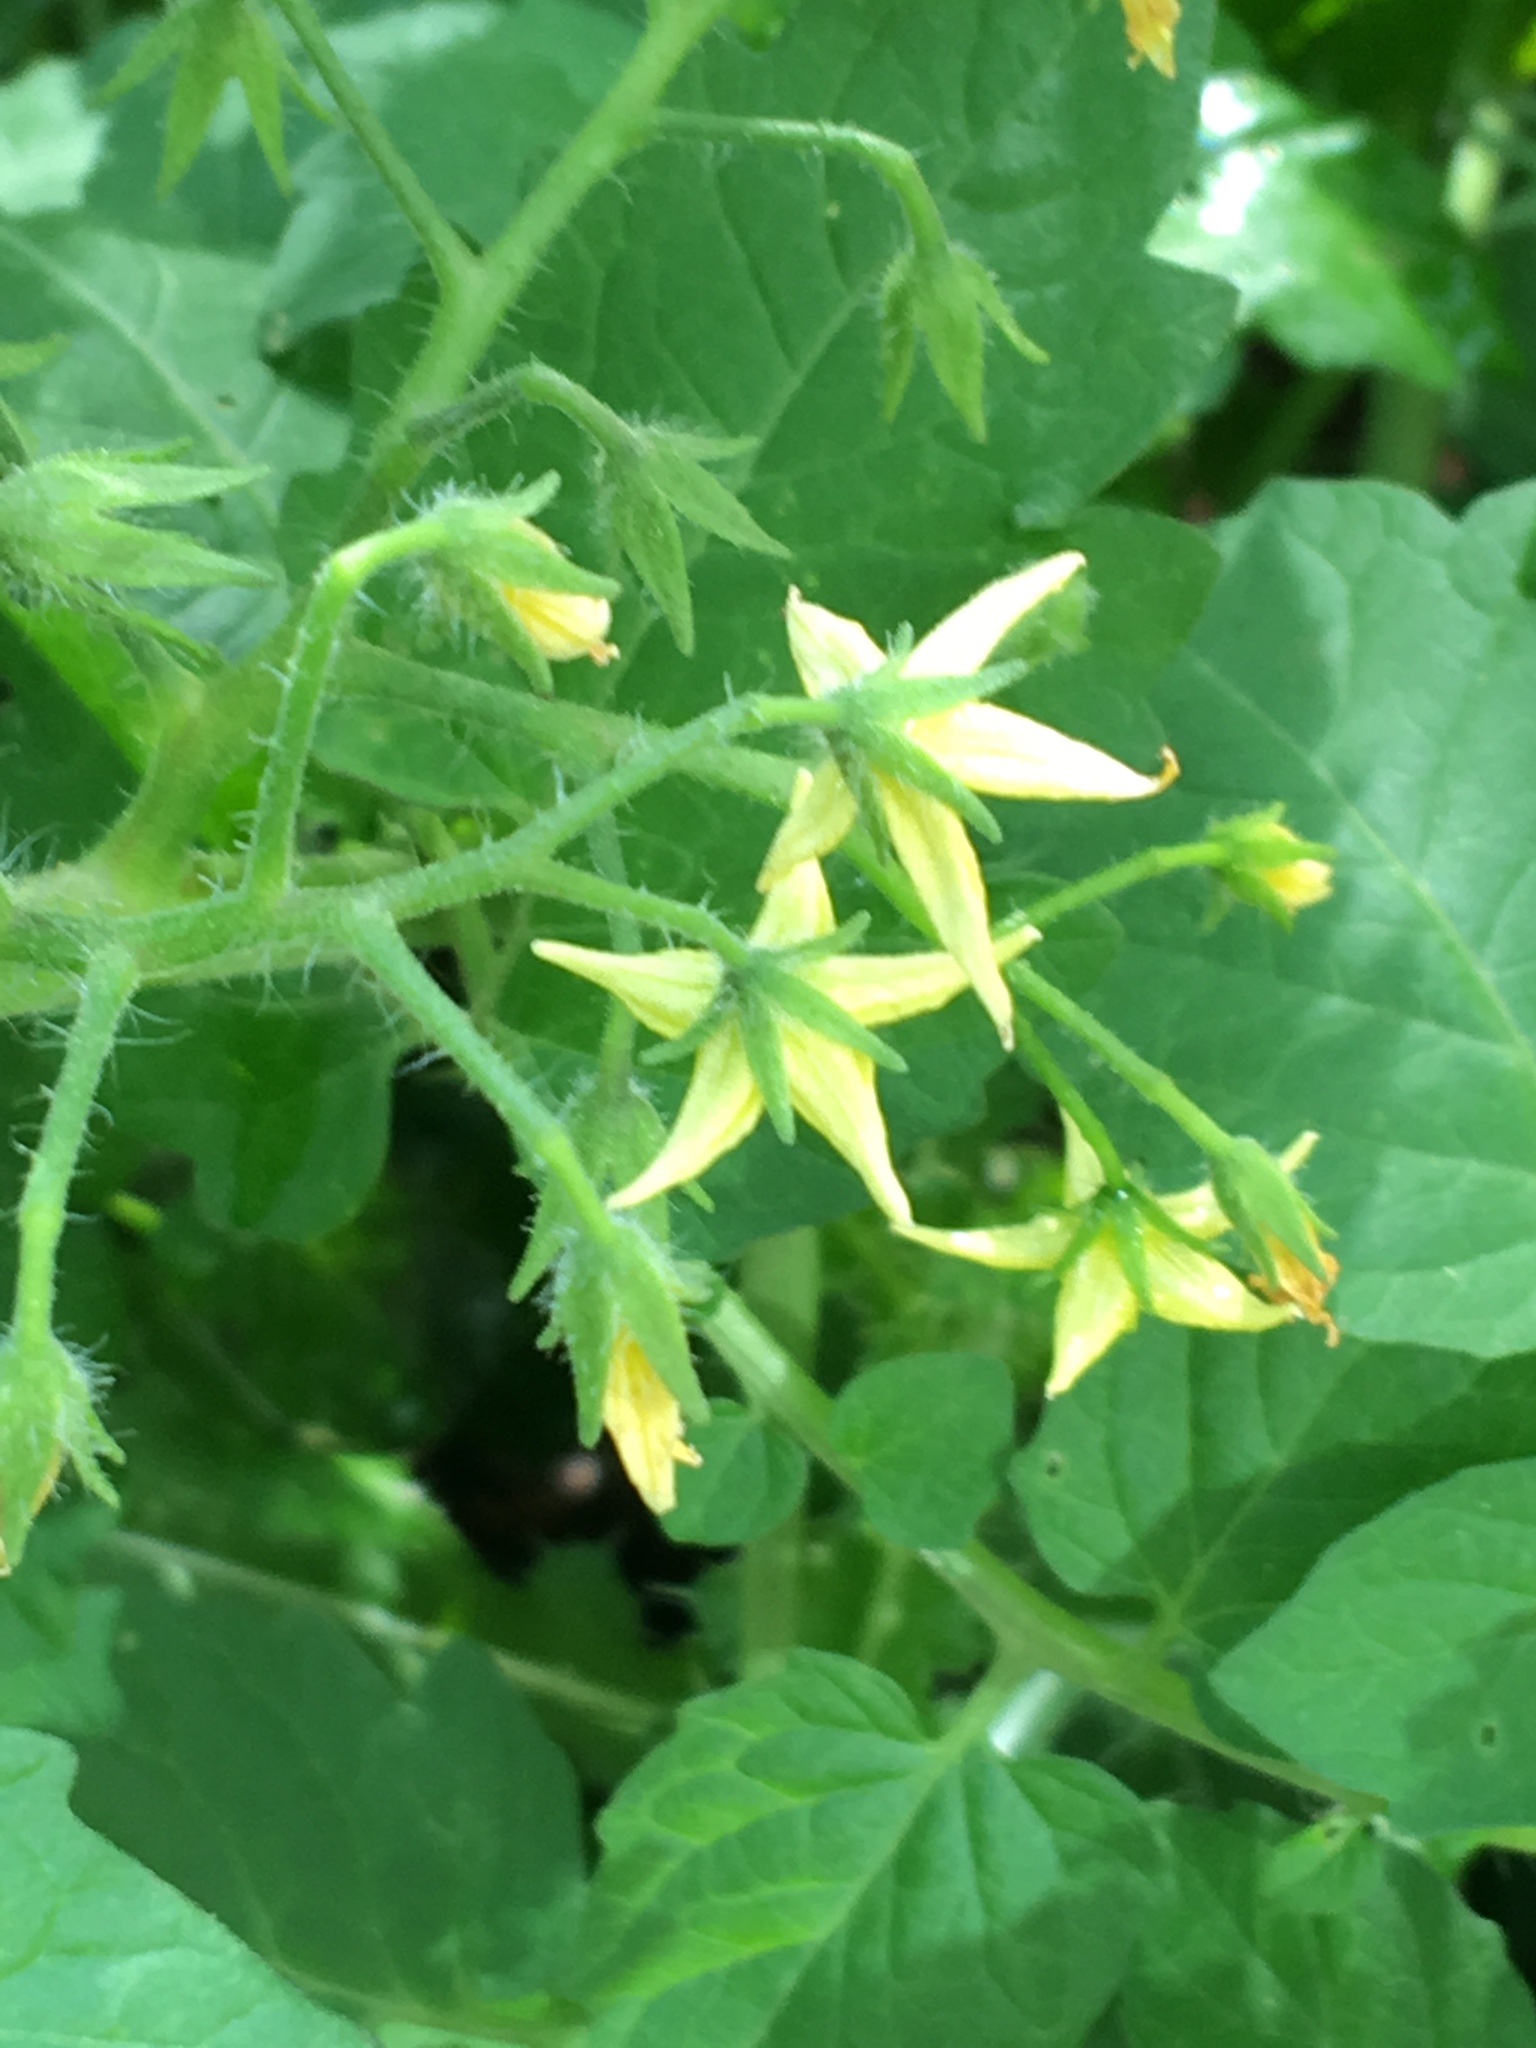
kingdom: Plantae
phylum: Tracheophyta
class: Magnoliopsida
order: Solanales
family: Solanaceae
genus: Solanum
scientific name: Solanum lycopersicum
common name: Garden tomato
